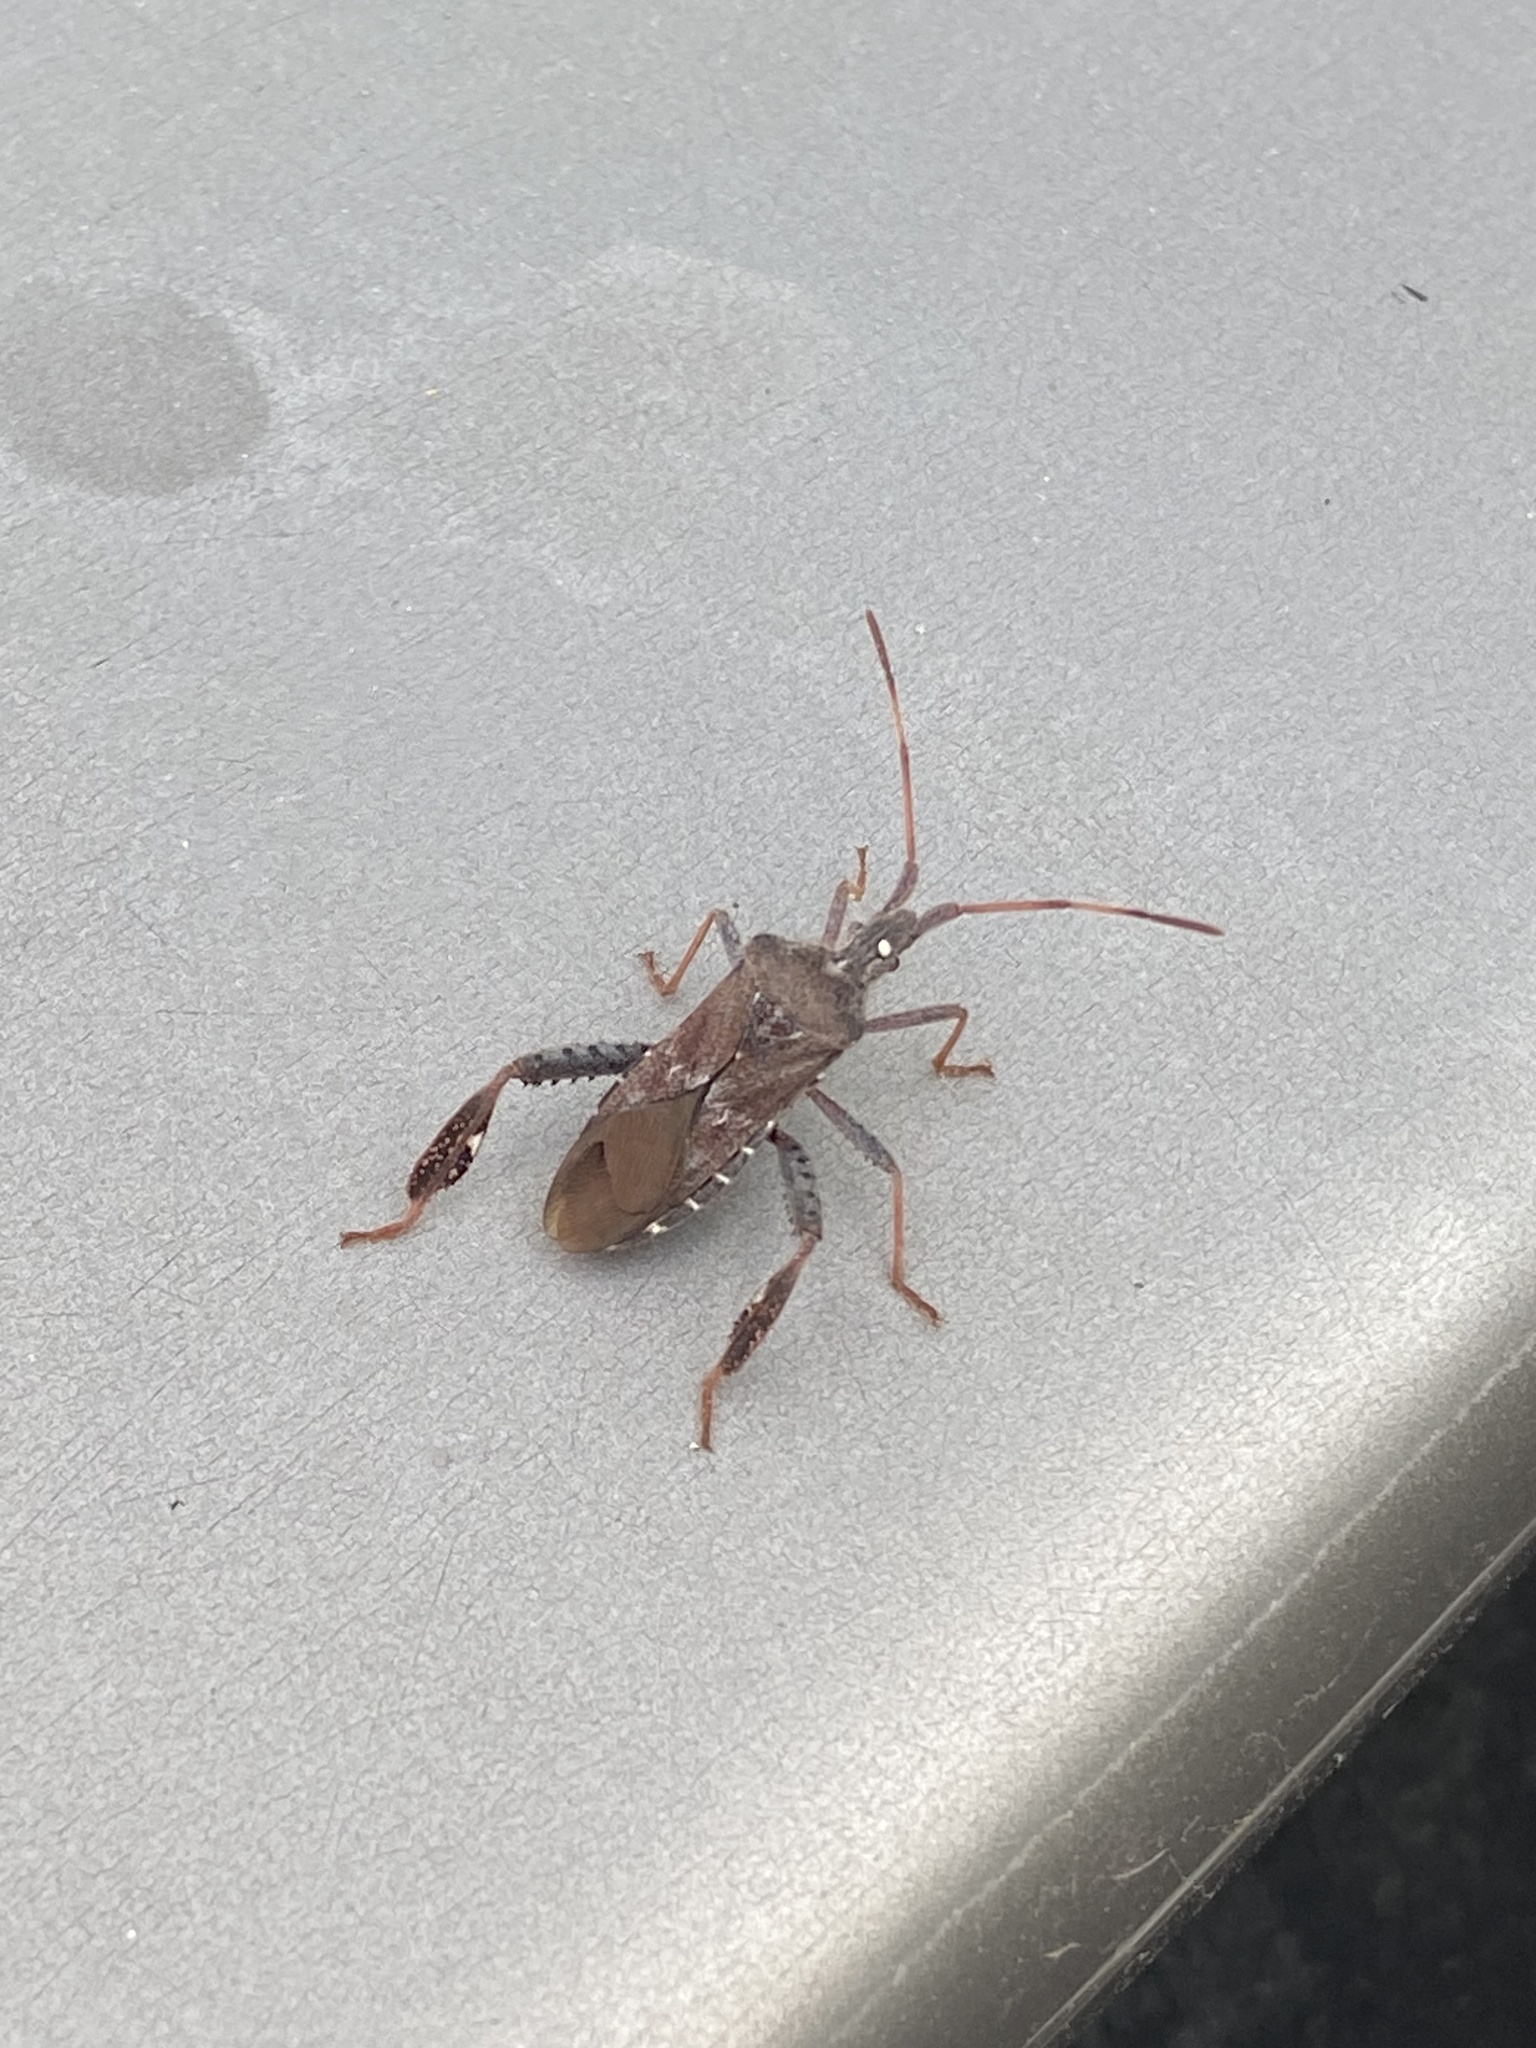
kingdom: Animalia
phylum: Arthropoda
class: Insecta
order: Hemiptera
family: Coreidae
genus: Leptoglossus
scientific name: Leptoglossus corculus
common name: Southern pine seed bug
